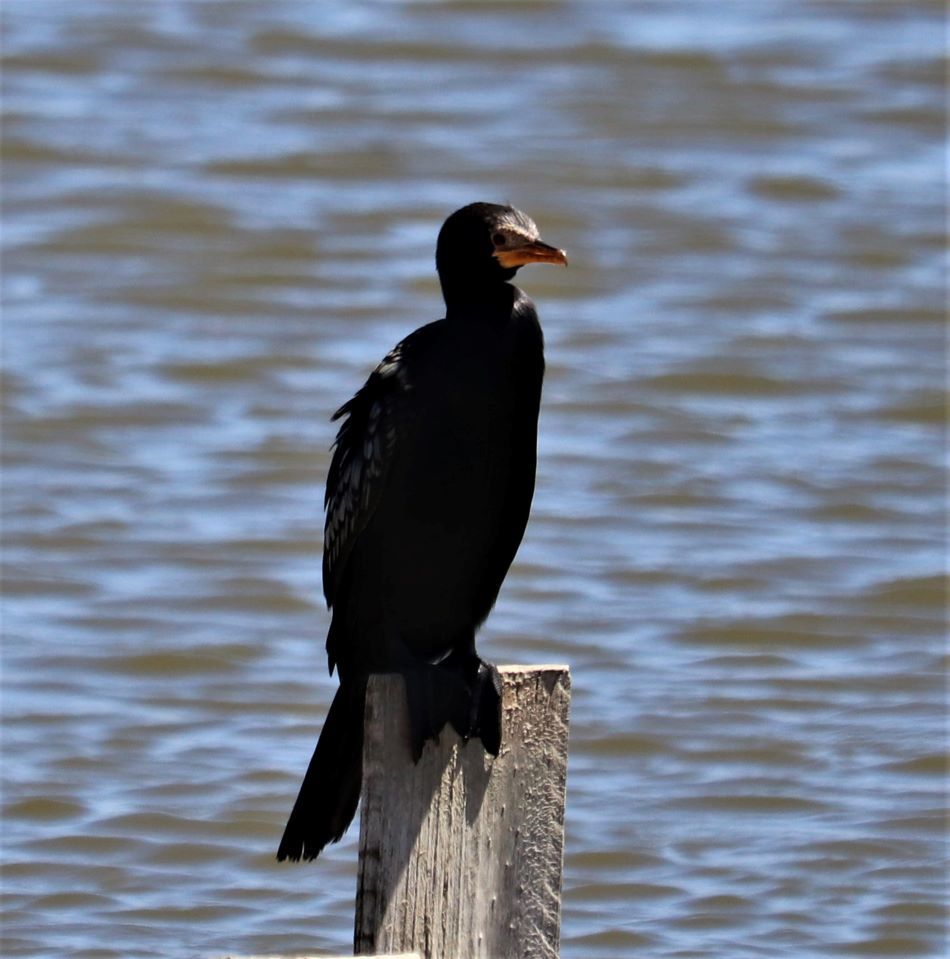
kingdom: Animalia
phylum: Chordata
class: Aves
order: Suliformes
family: Phalacrocoracidae
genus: Microcarbo
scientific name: Microcarbo africanus
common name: Long-tailed cormorant
